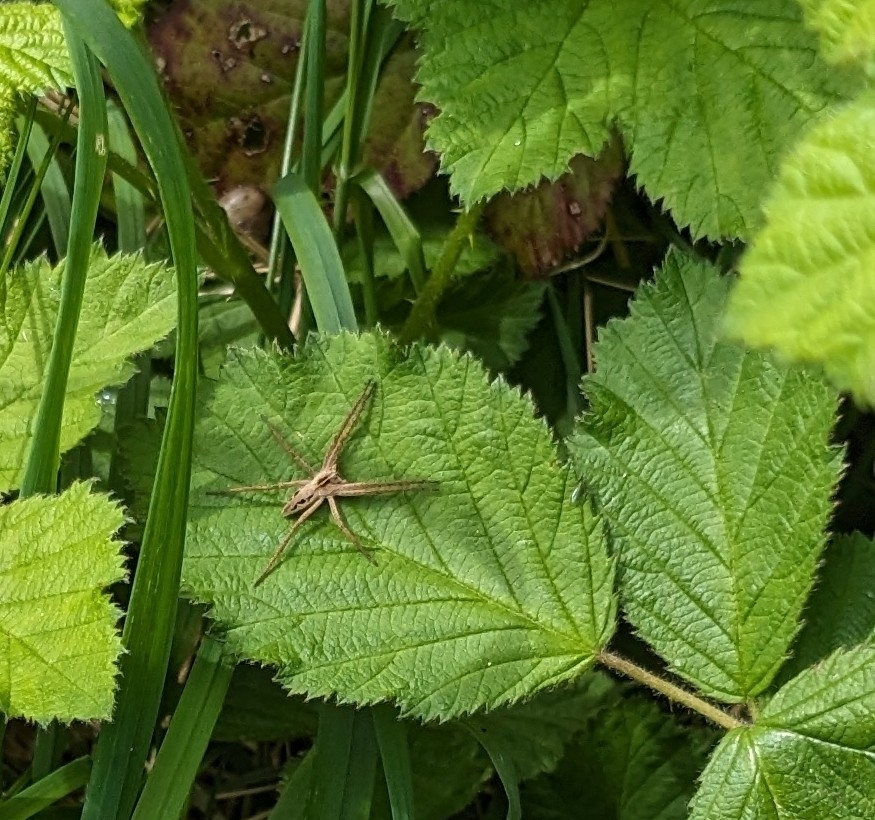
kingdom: Animalia
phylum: Arthropoda
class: Arachnida
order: Araneae
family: Pisauridae
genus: Pisaura
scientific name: Pisaura mirabilis
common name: Tent spider
